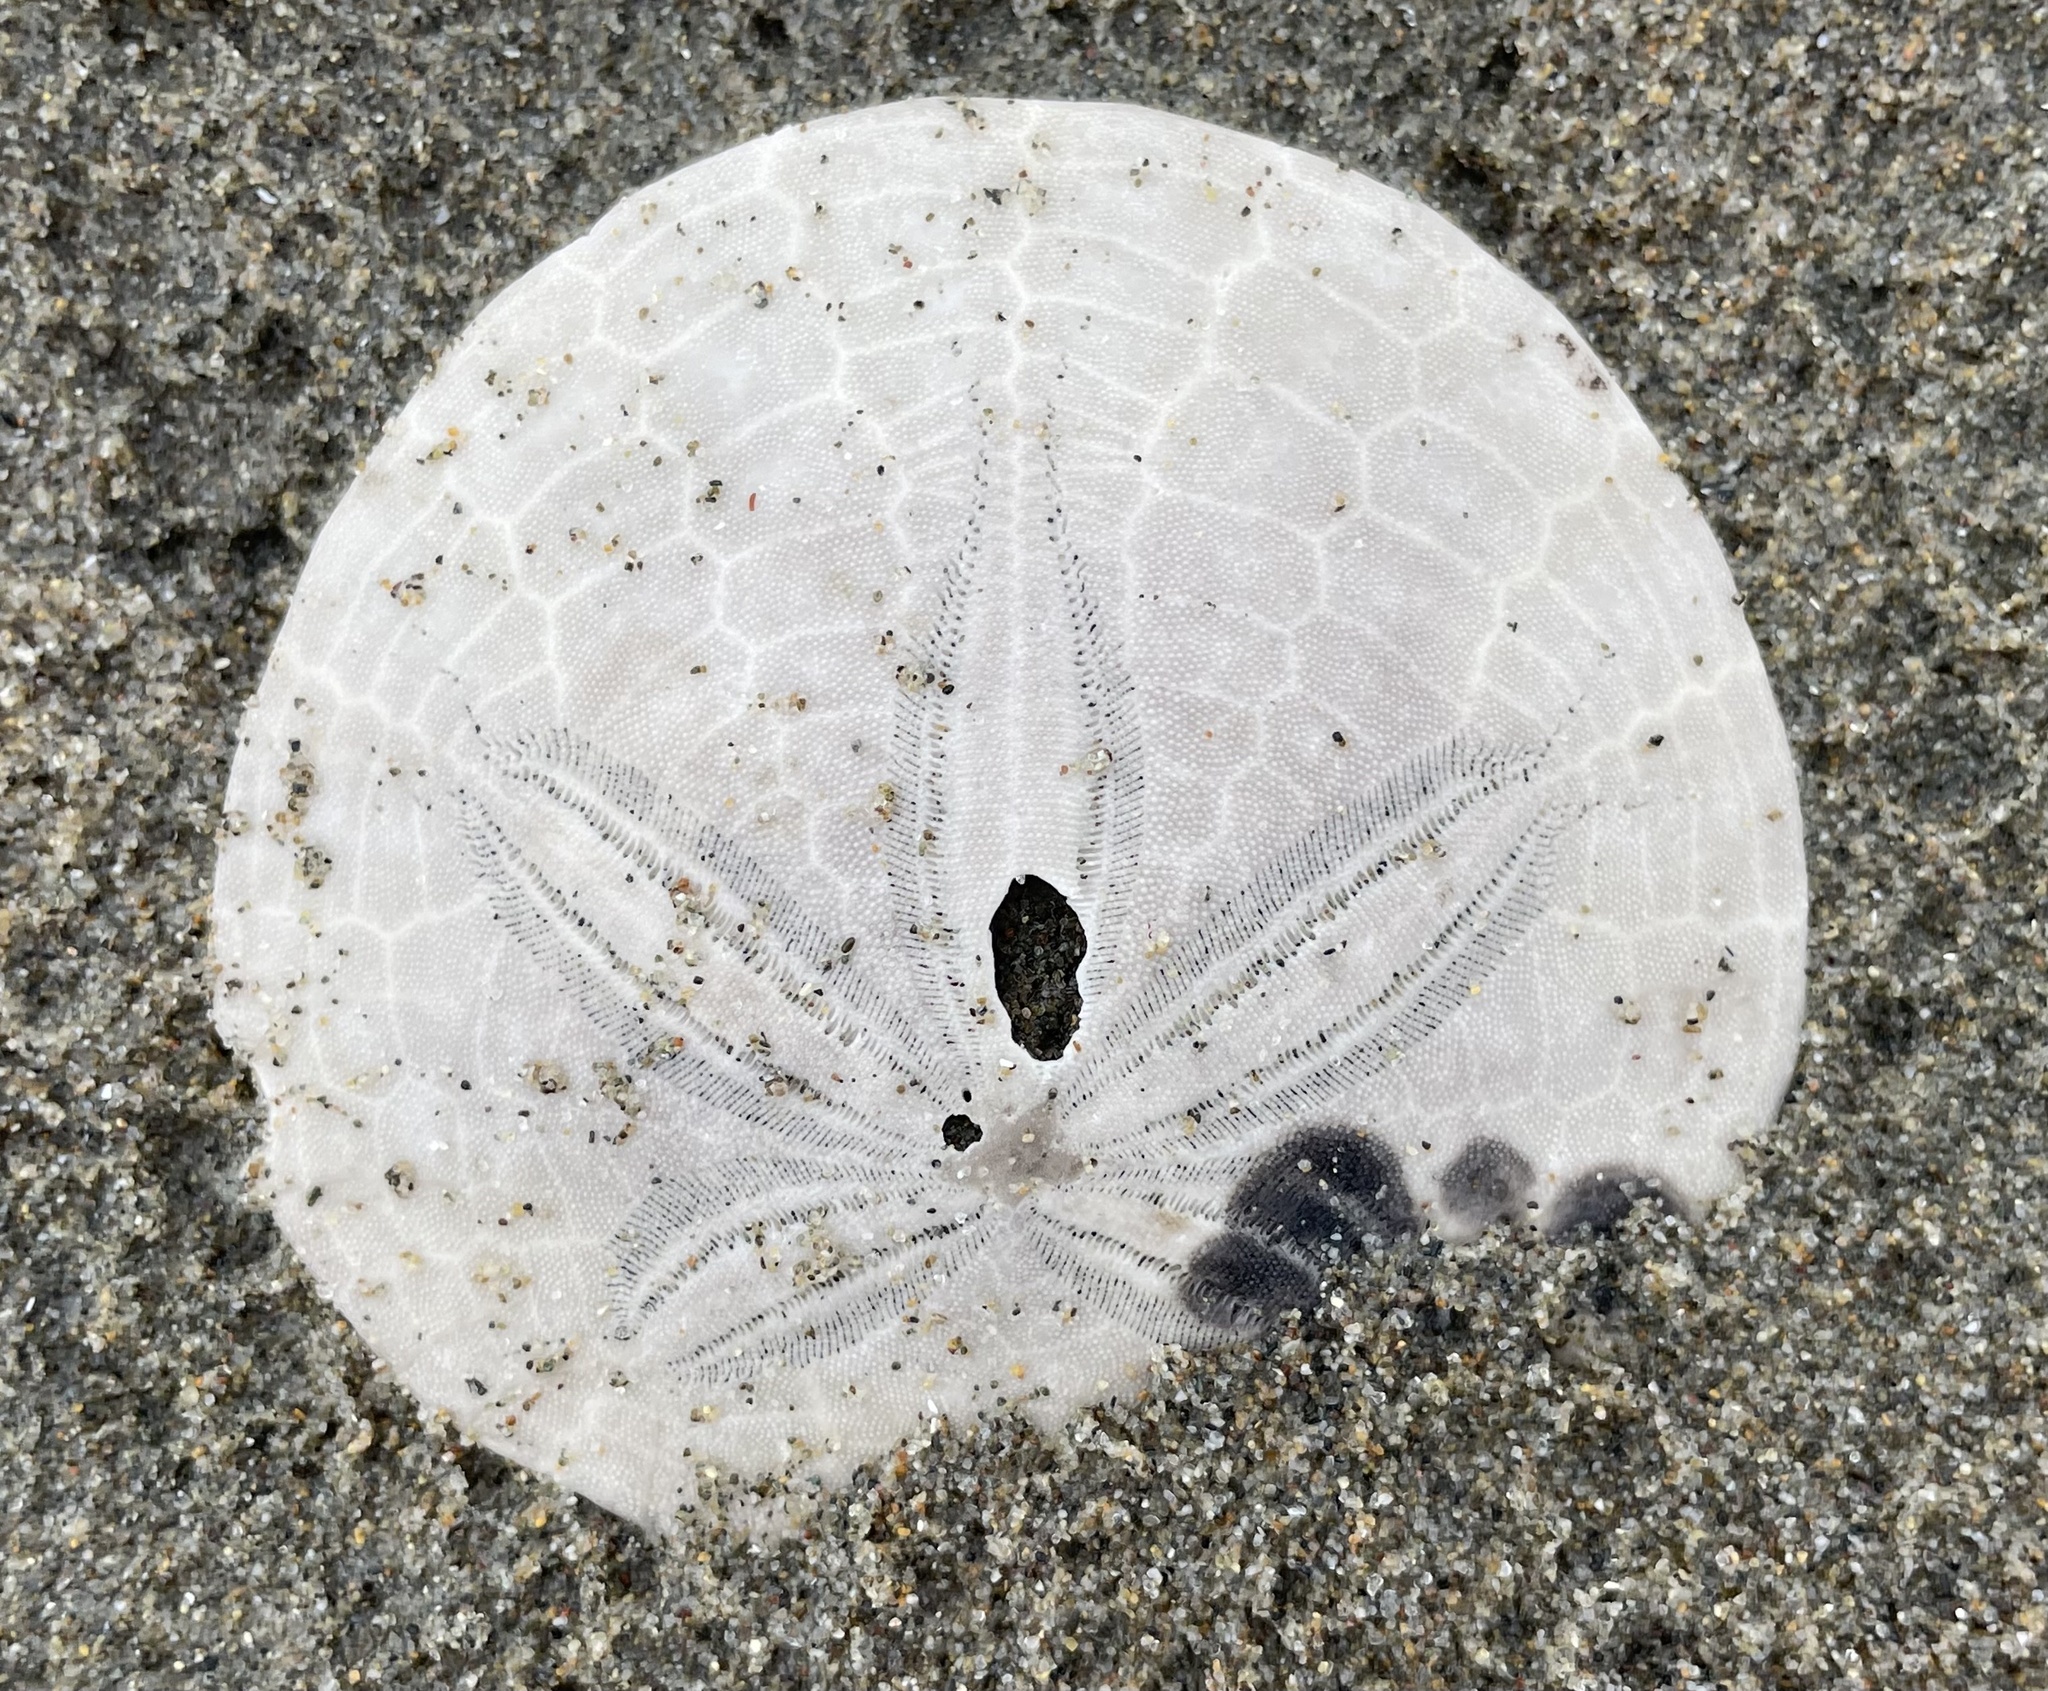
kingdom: Animalia
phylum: Echinodermata
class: Echinoidea
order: Echinolampadacea
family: Dendrasteridae
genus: Dendraster
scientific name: Dendraster excentricus
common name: Eccentric sand dollar sea urchin
